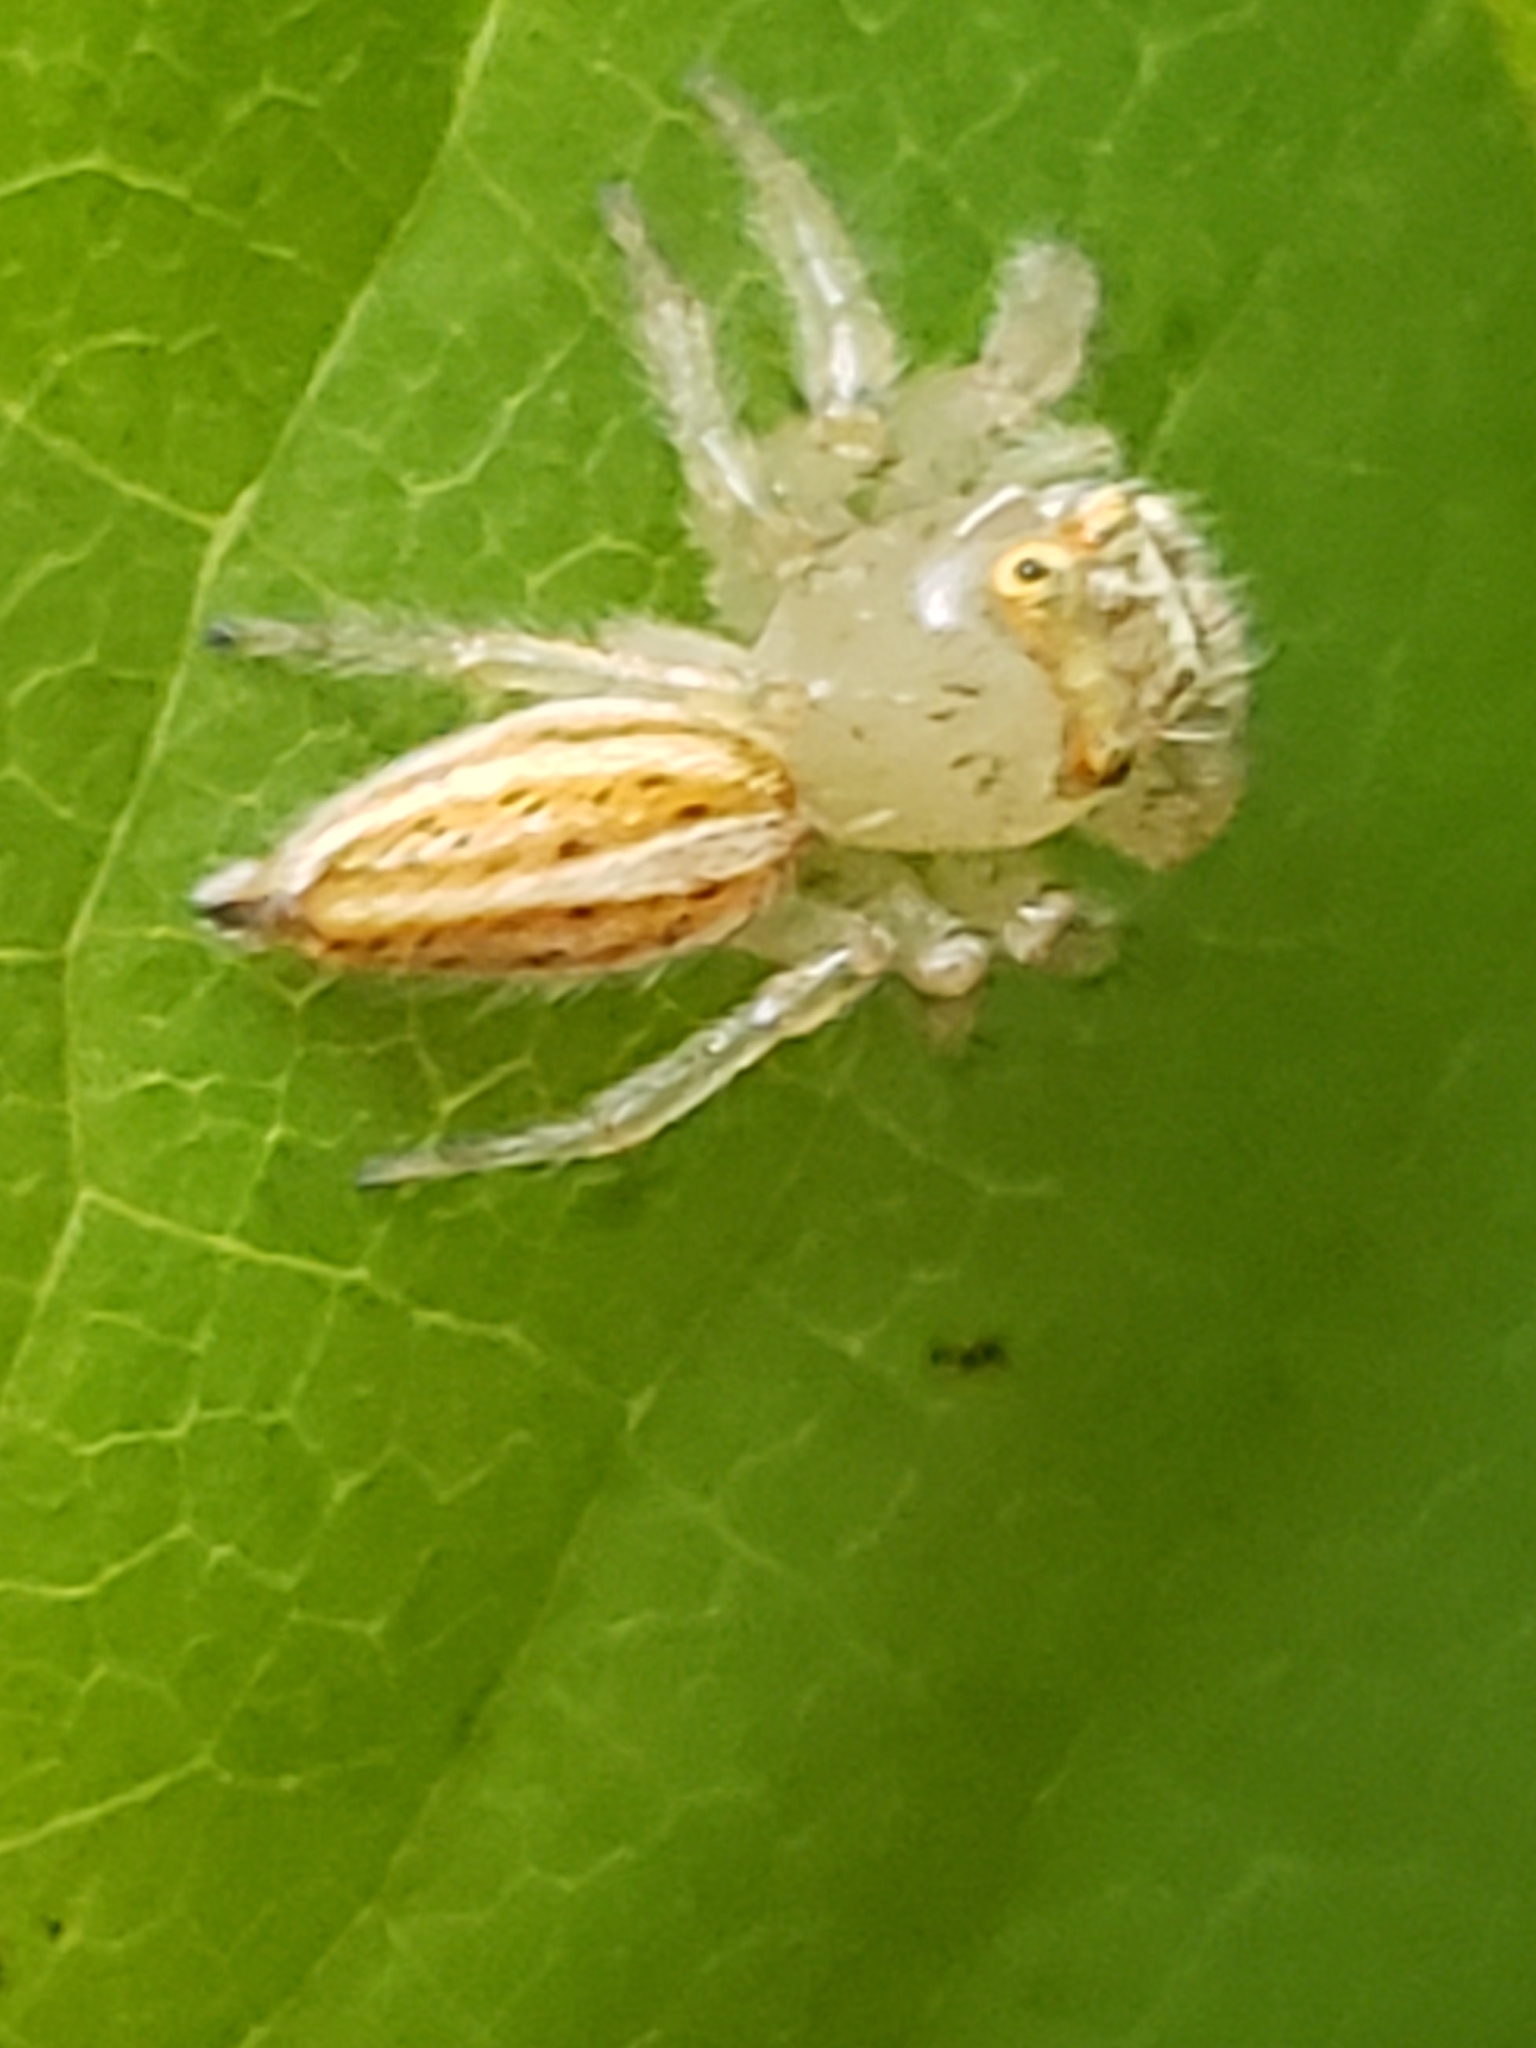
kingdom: Animalia
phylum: Arthropoda
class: Arachnida
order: Araneae
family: Salticidae
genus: Colonus
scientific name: Colonus sylvanus
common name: Jumping spiders
